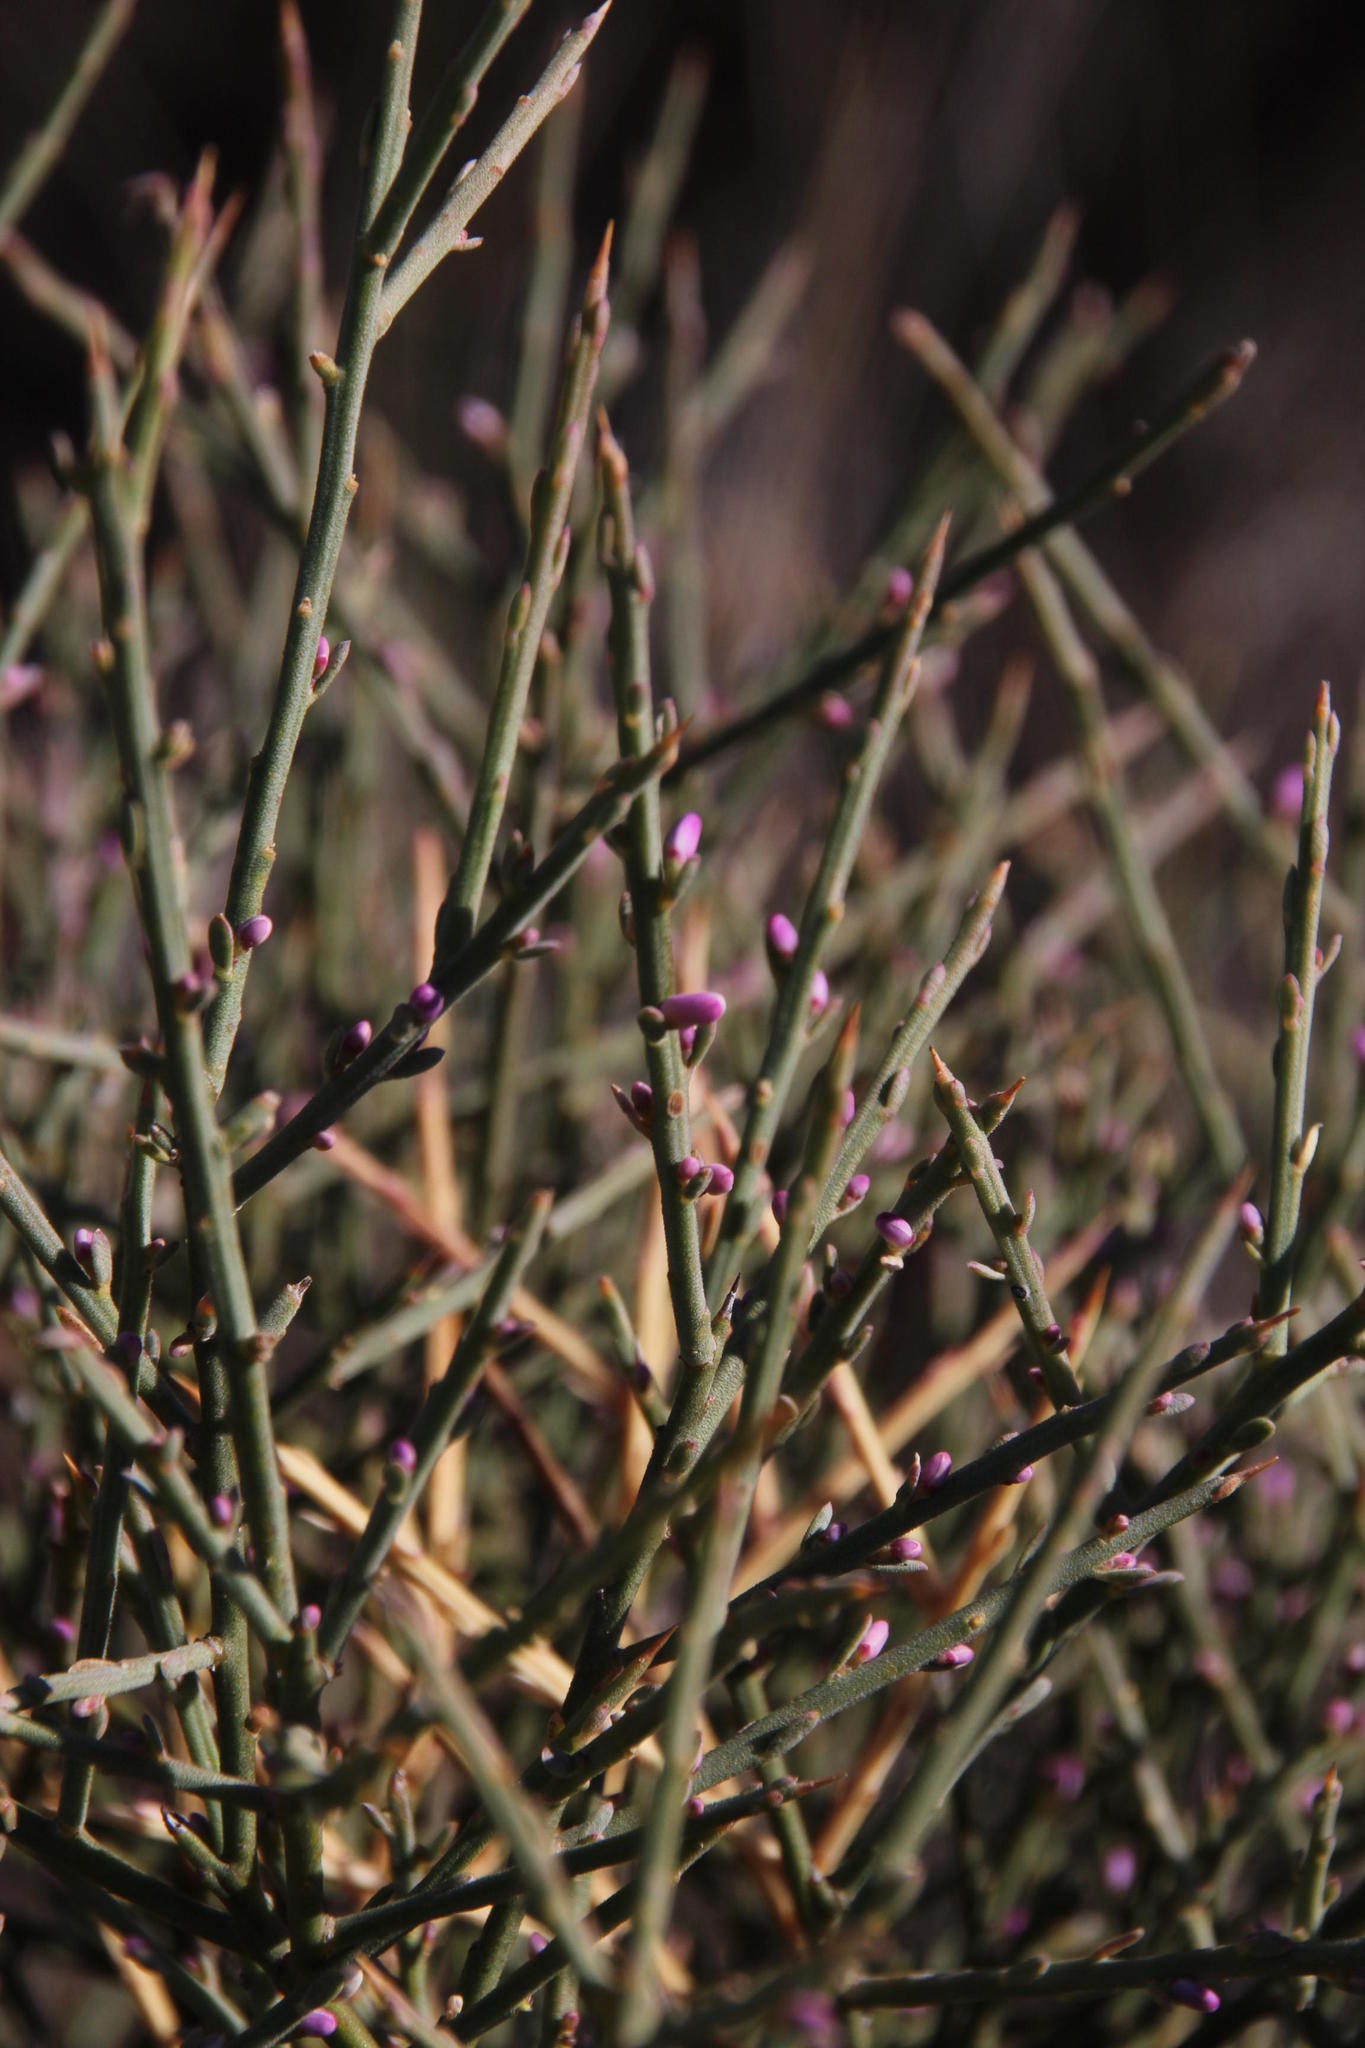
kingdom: Plantae
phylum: Tracheophyta
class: Magnoliopsida
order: Fabales
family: Polygalaceae
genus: Muraltia
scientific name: Muraltia spinosa
